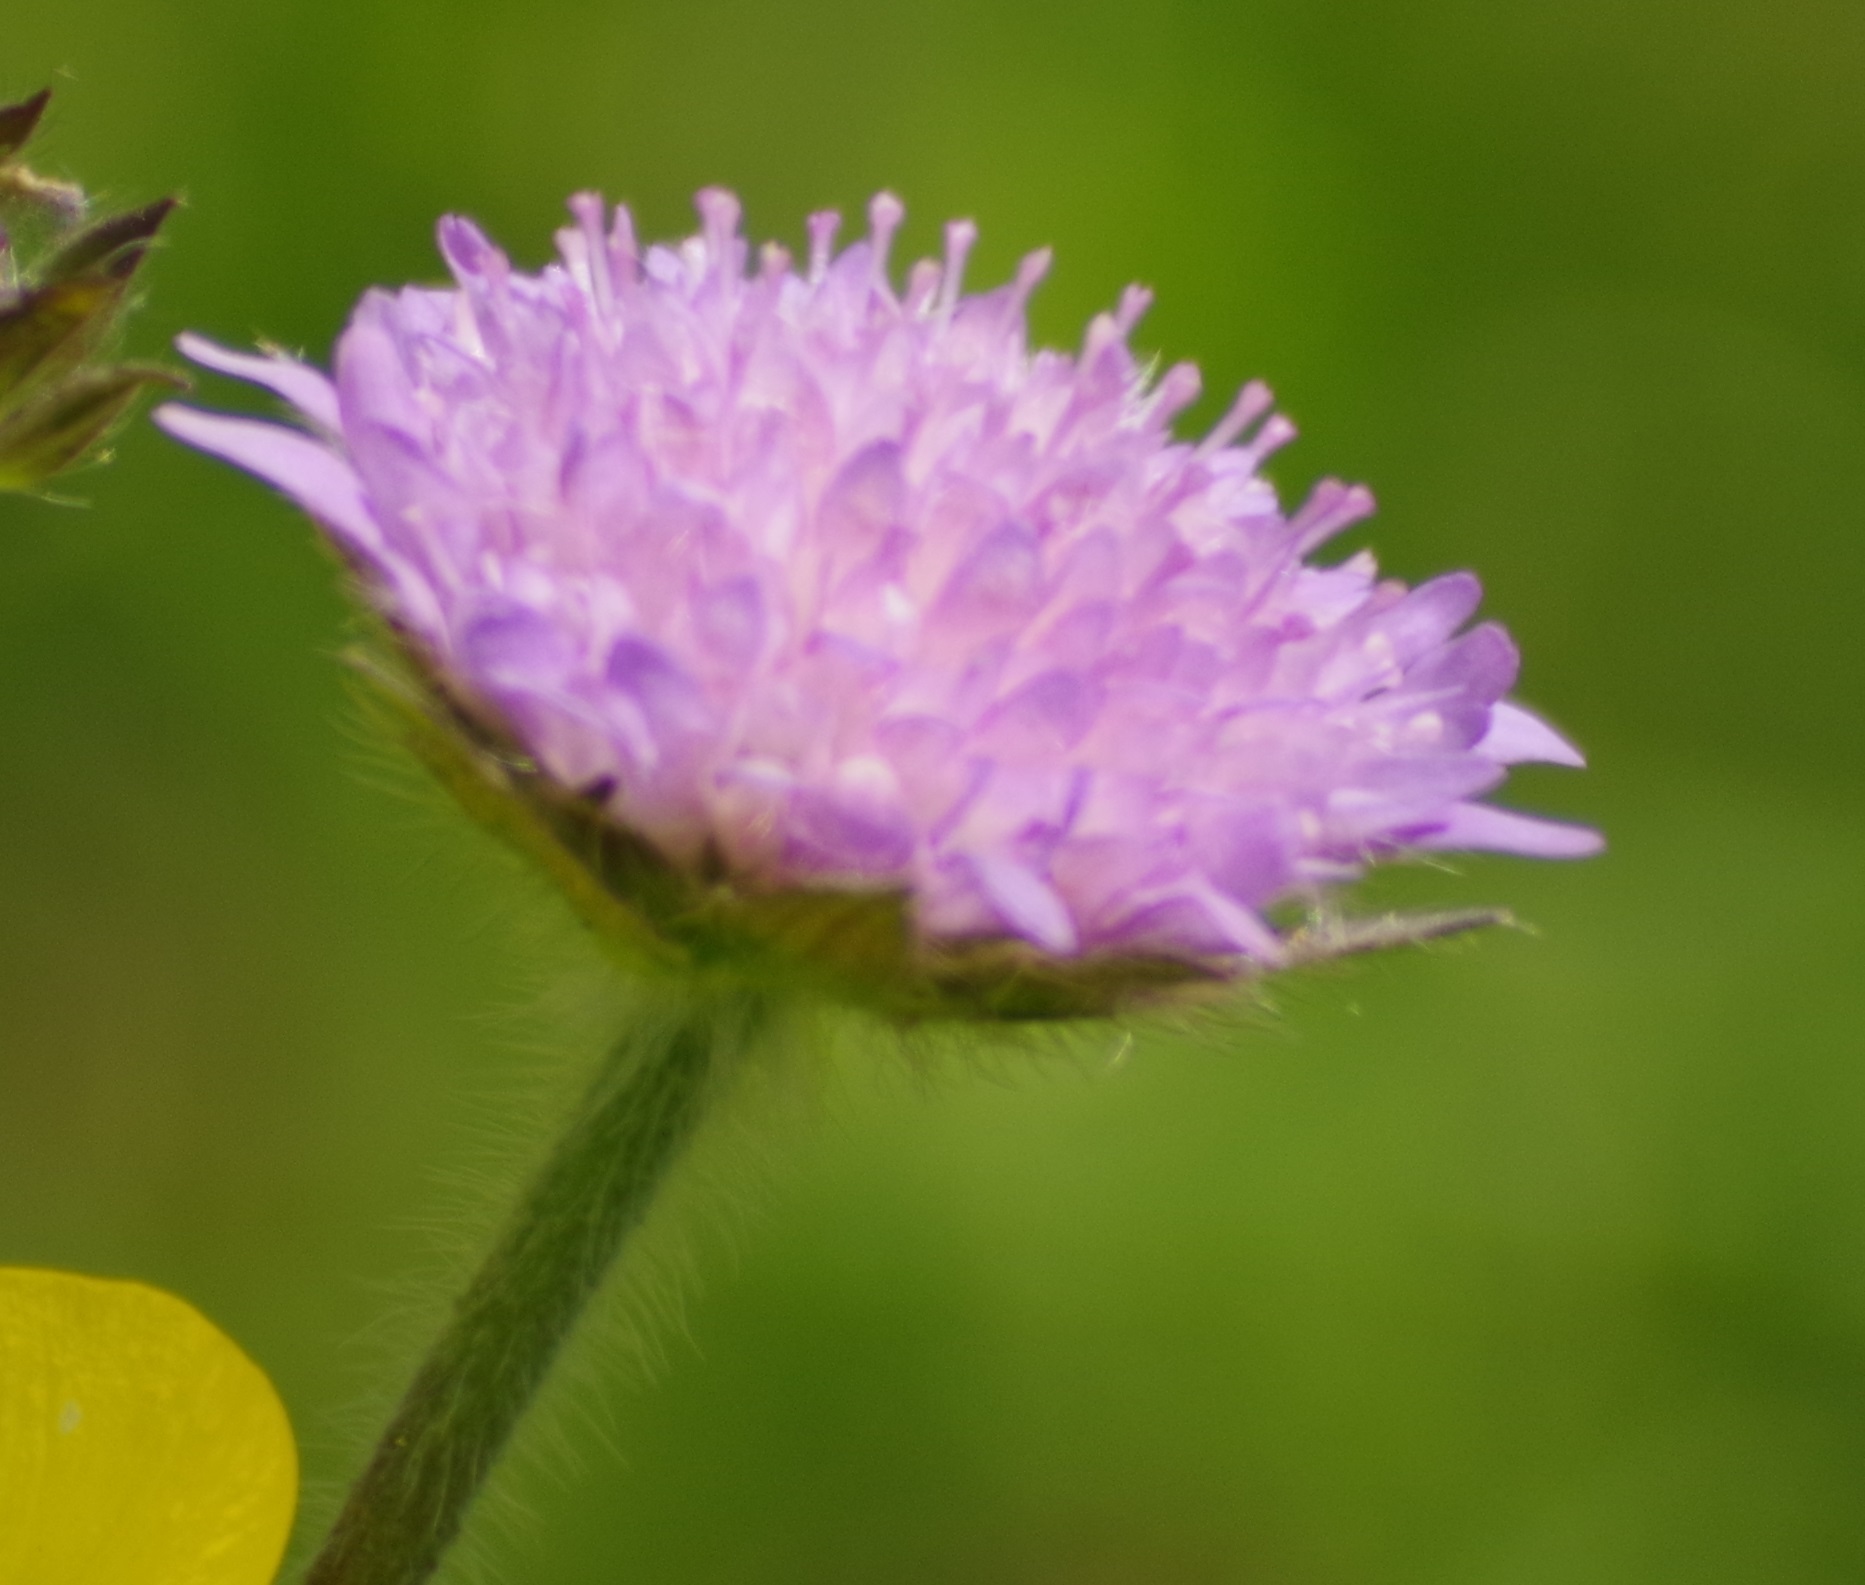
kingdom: Plantae
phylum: Tracheophyta
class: Magnoliopsida
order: Dipsacales
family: Caprifoliaceae
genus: Knautia
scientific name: Knautia arvensis
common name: Field scabiosa
